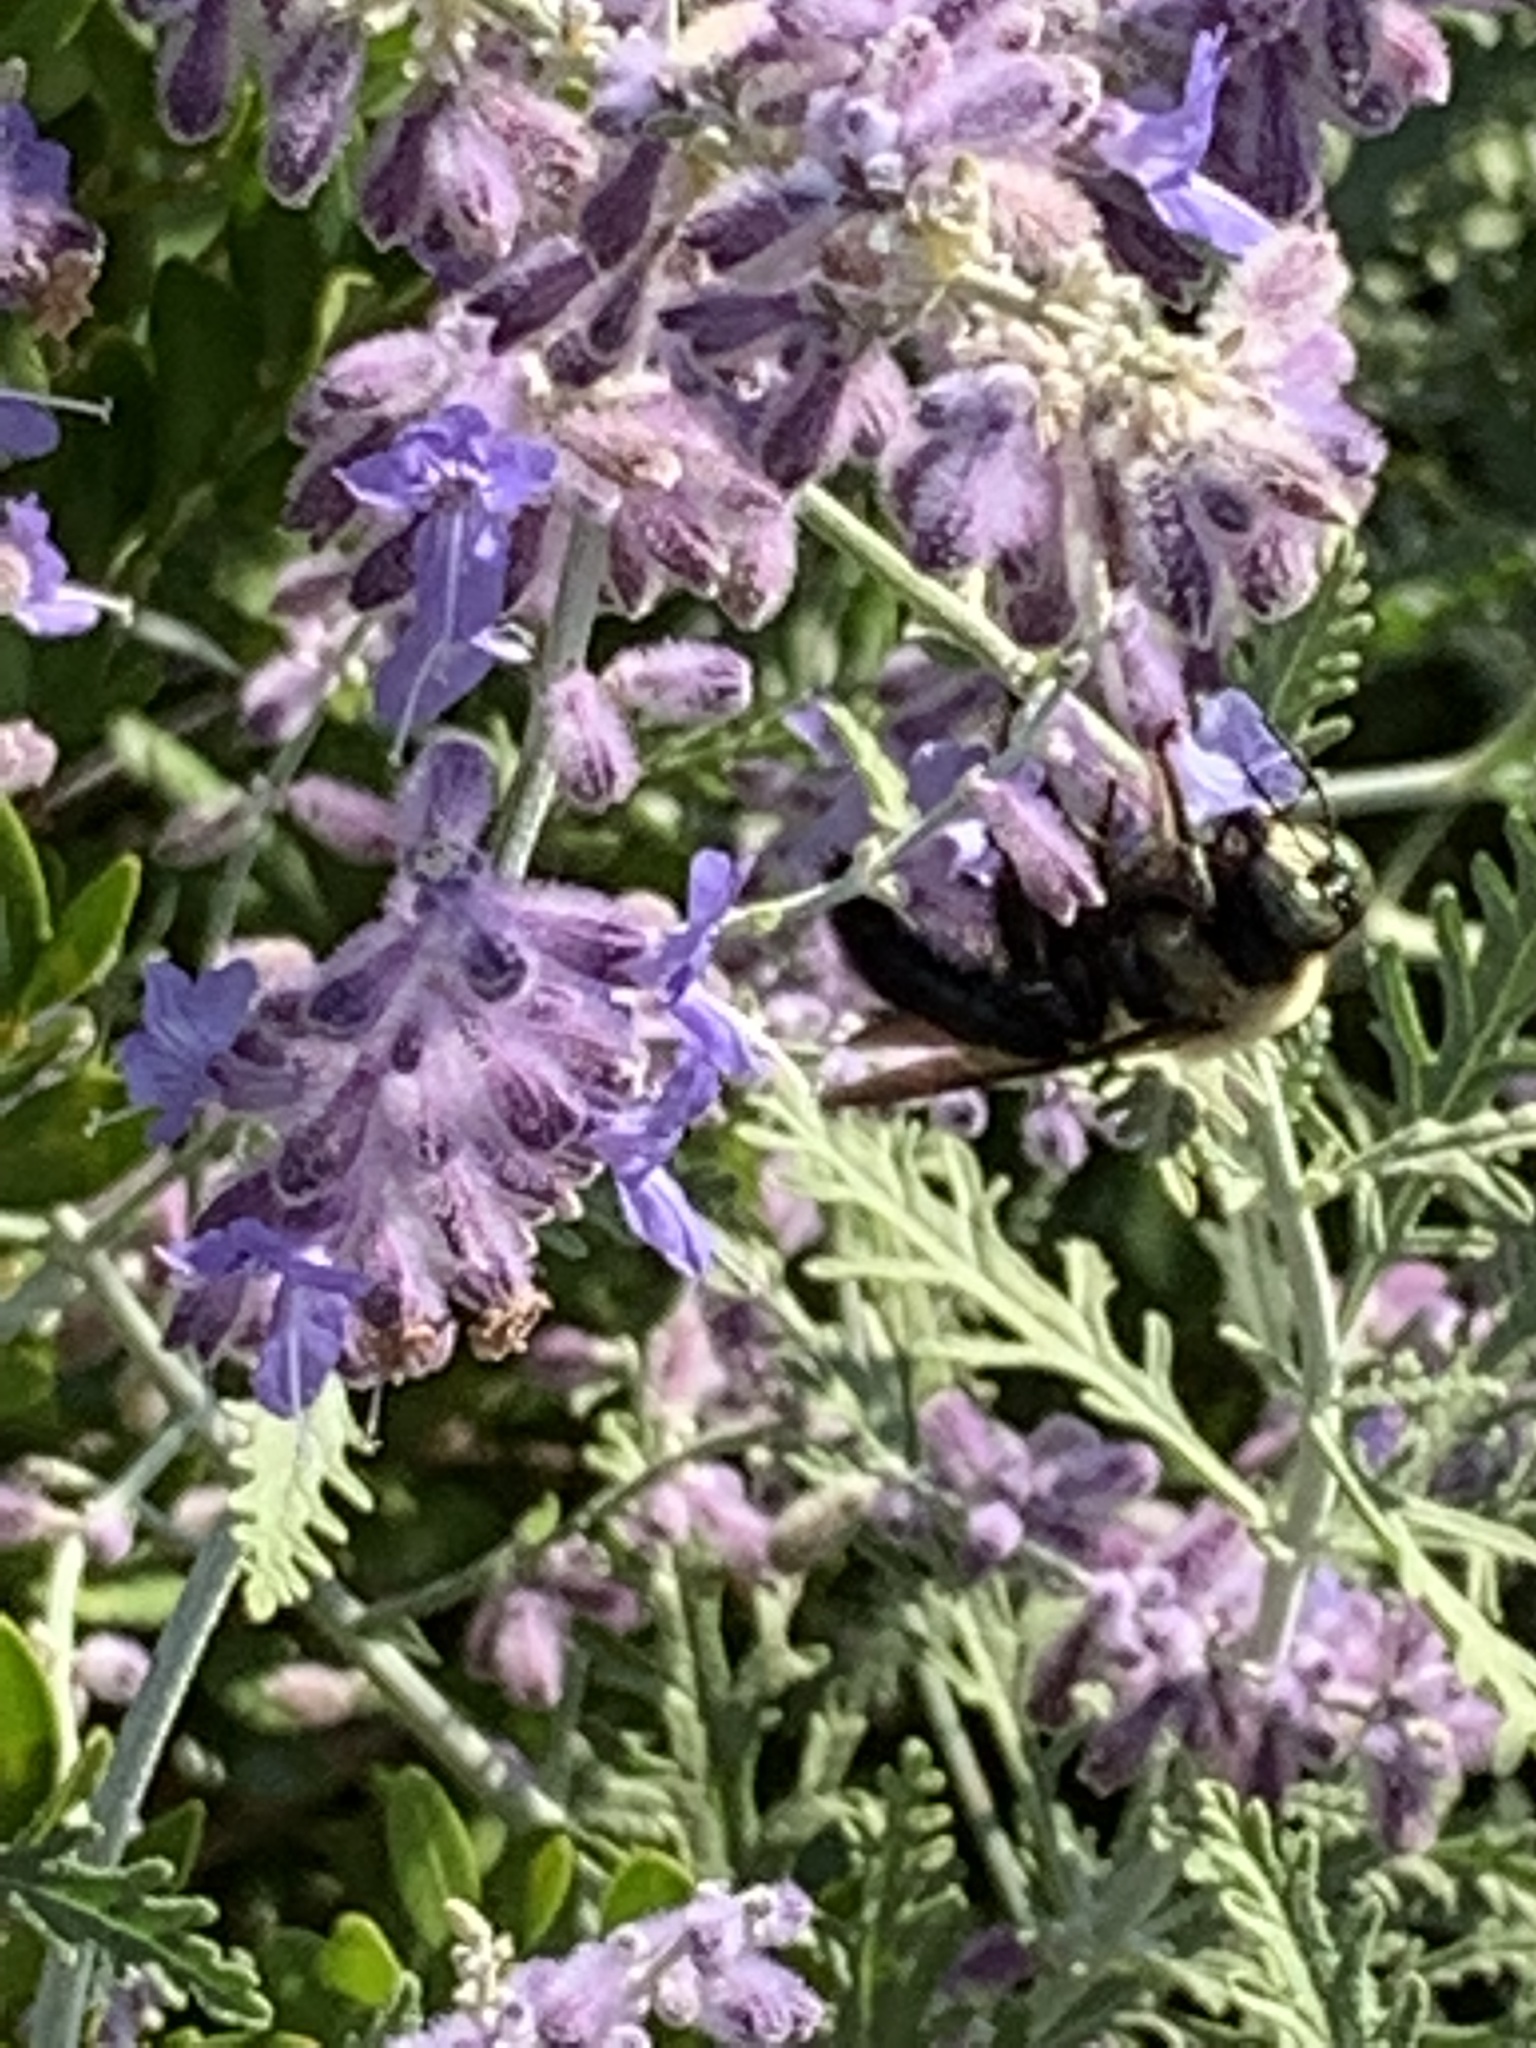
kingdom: Animalia
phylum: Arthropoda
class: Insecta
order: Hymenoptera
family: Apidae
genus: Xylocopa
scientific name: Xylocopa virginica
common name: Carpenter bee
